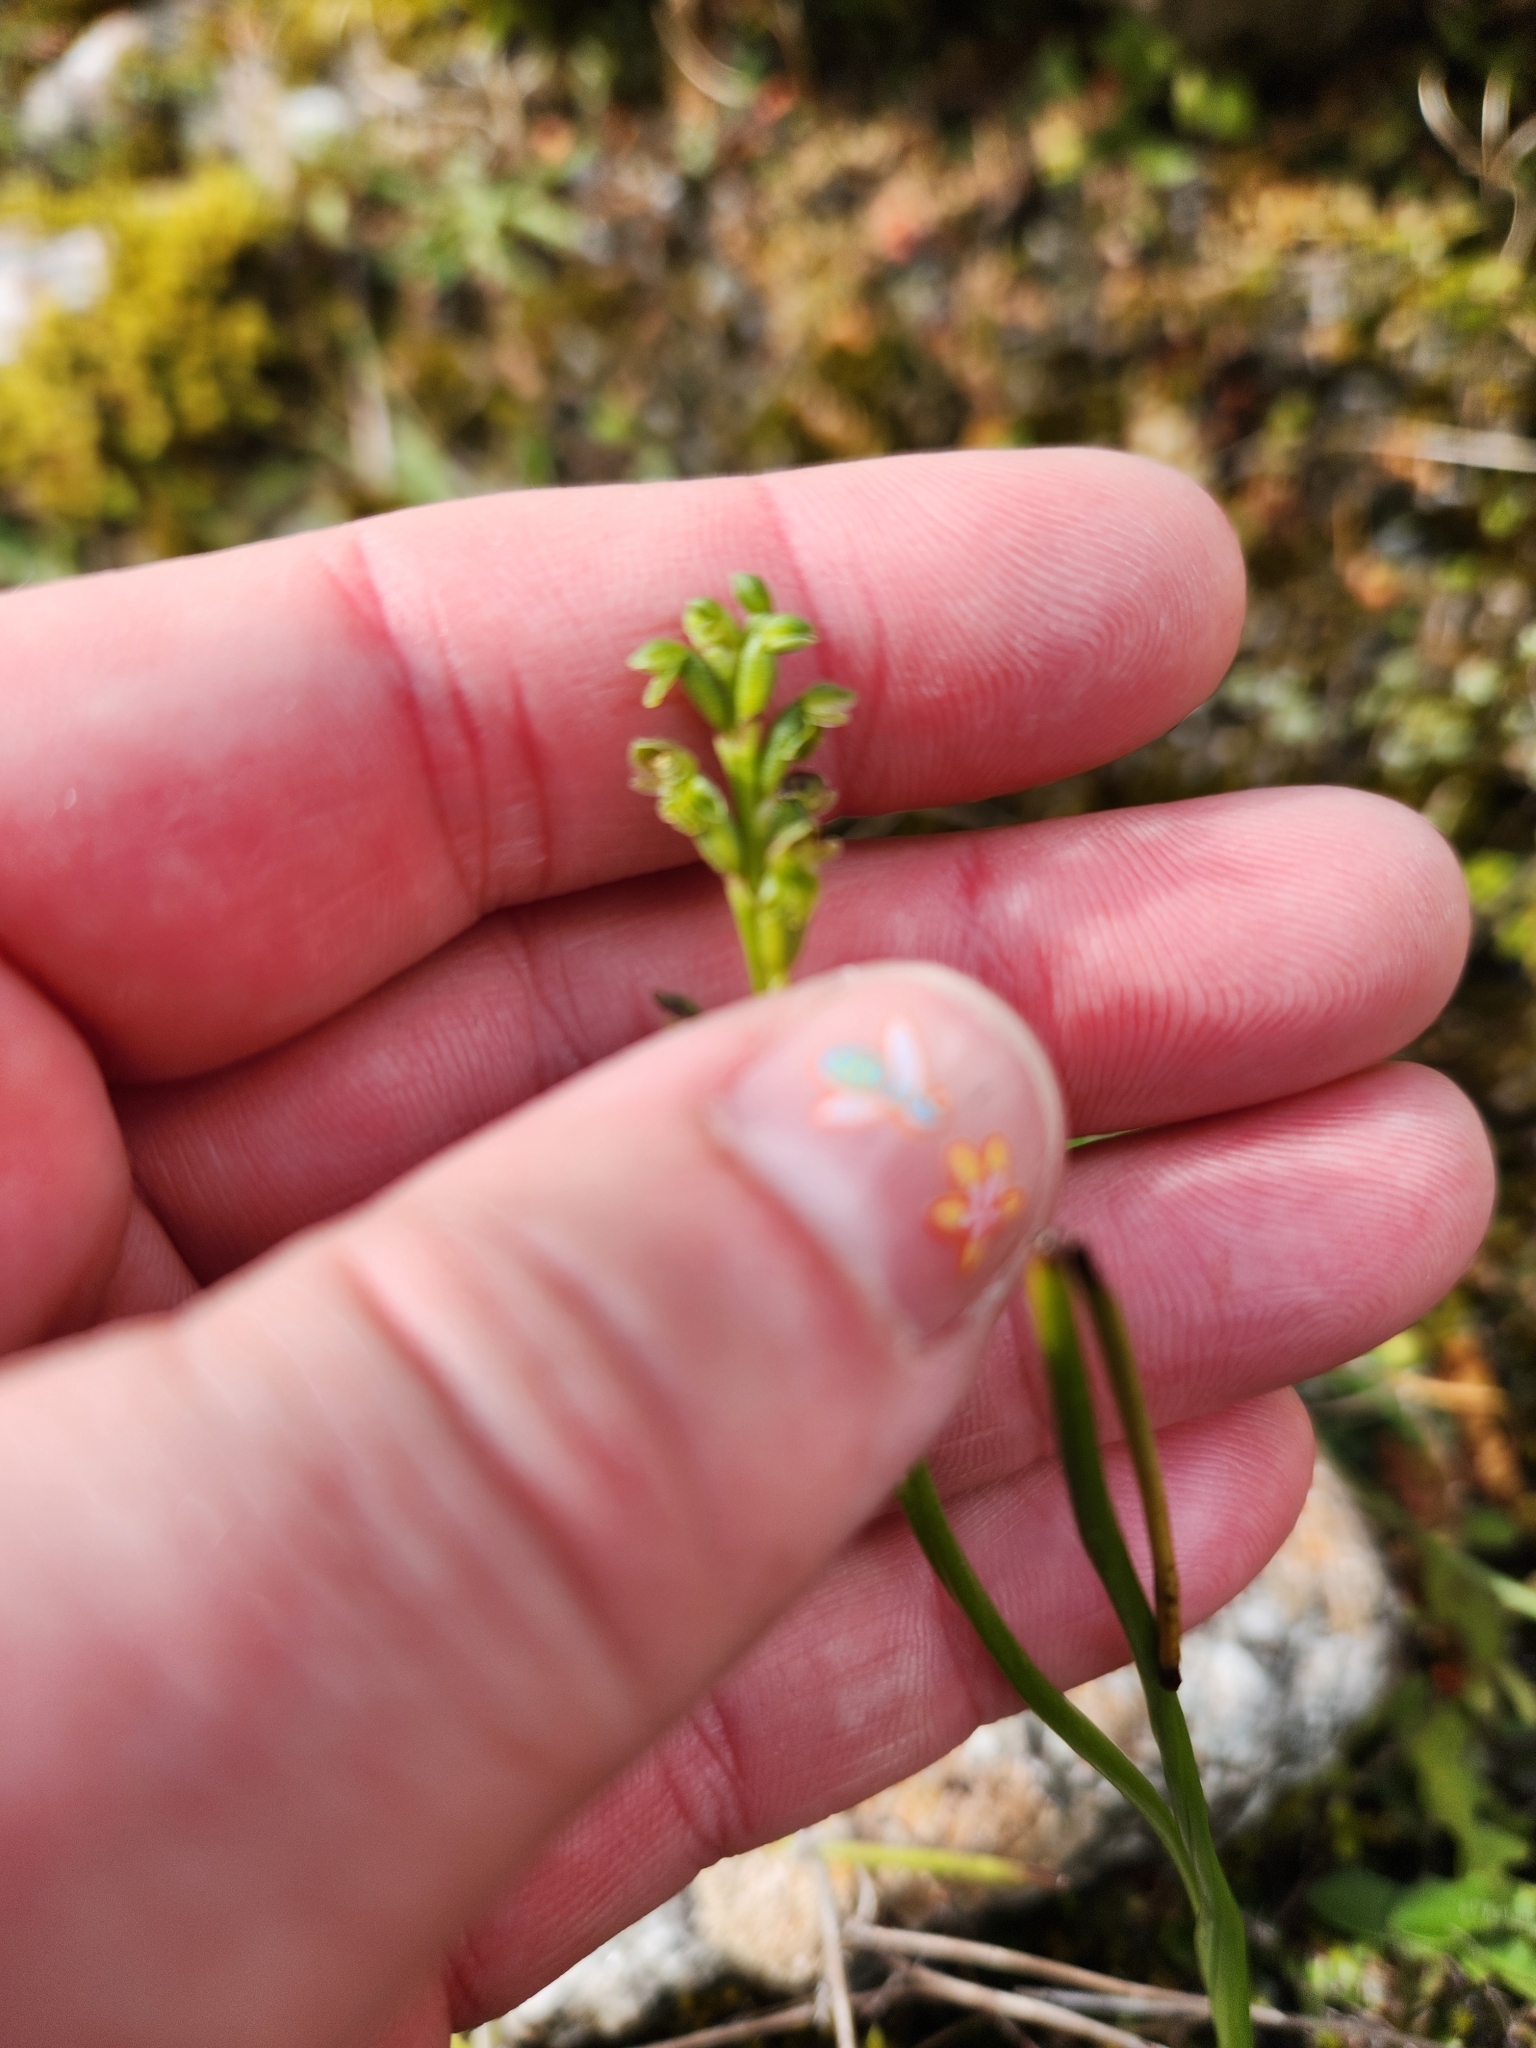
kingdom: Plantae
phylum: Tracheophyta
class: Liliopsida
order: Asparagales
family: Orchidaceae
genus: Microtis
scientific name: Microtis oligantha
